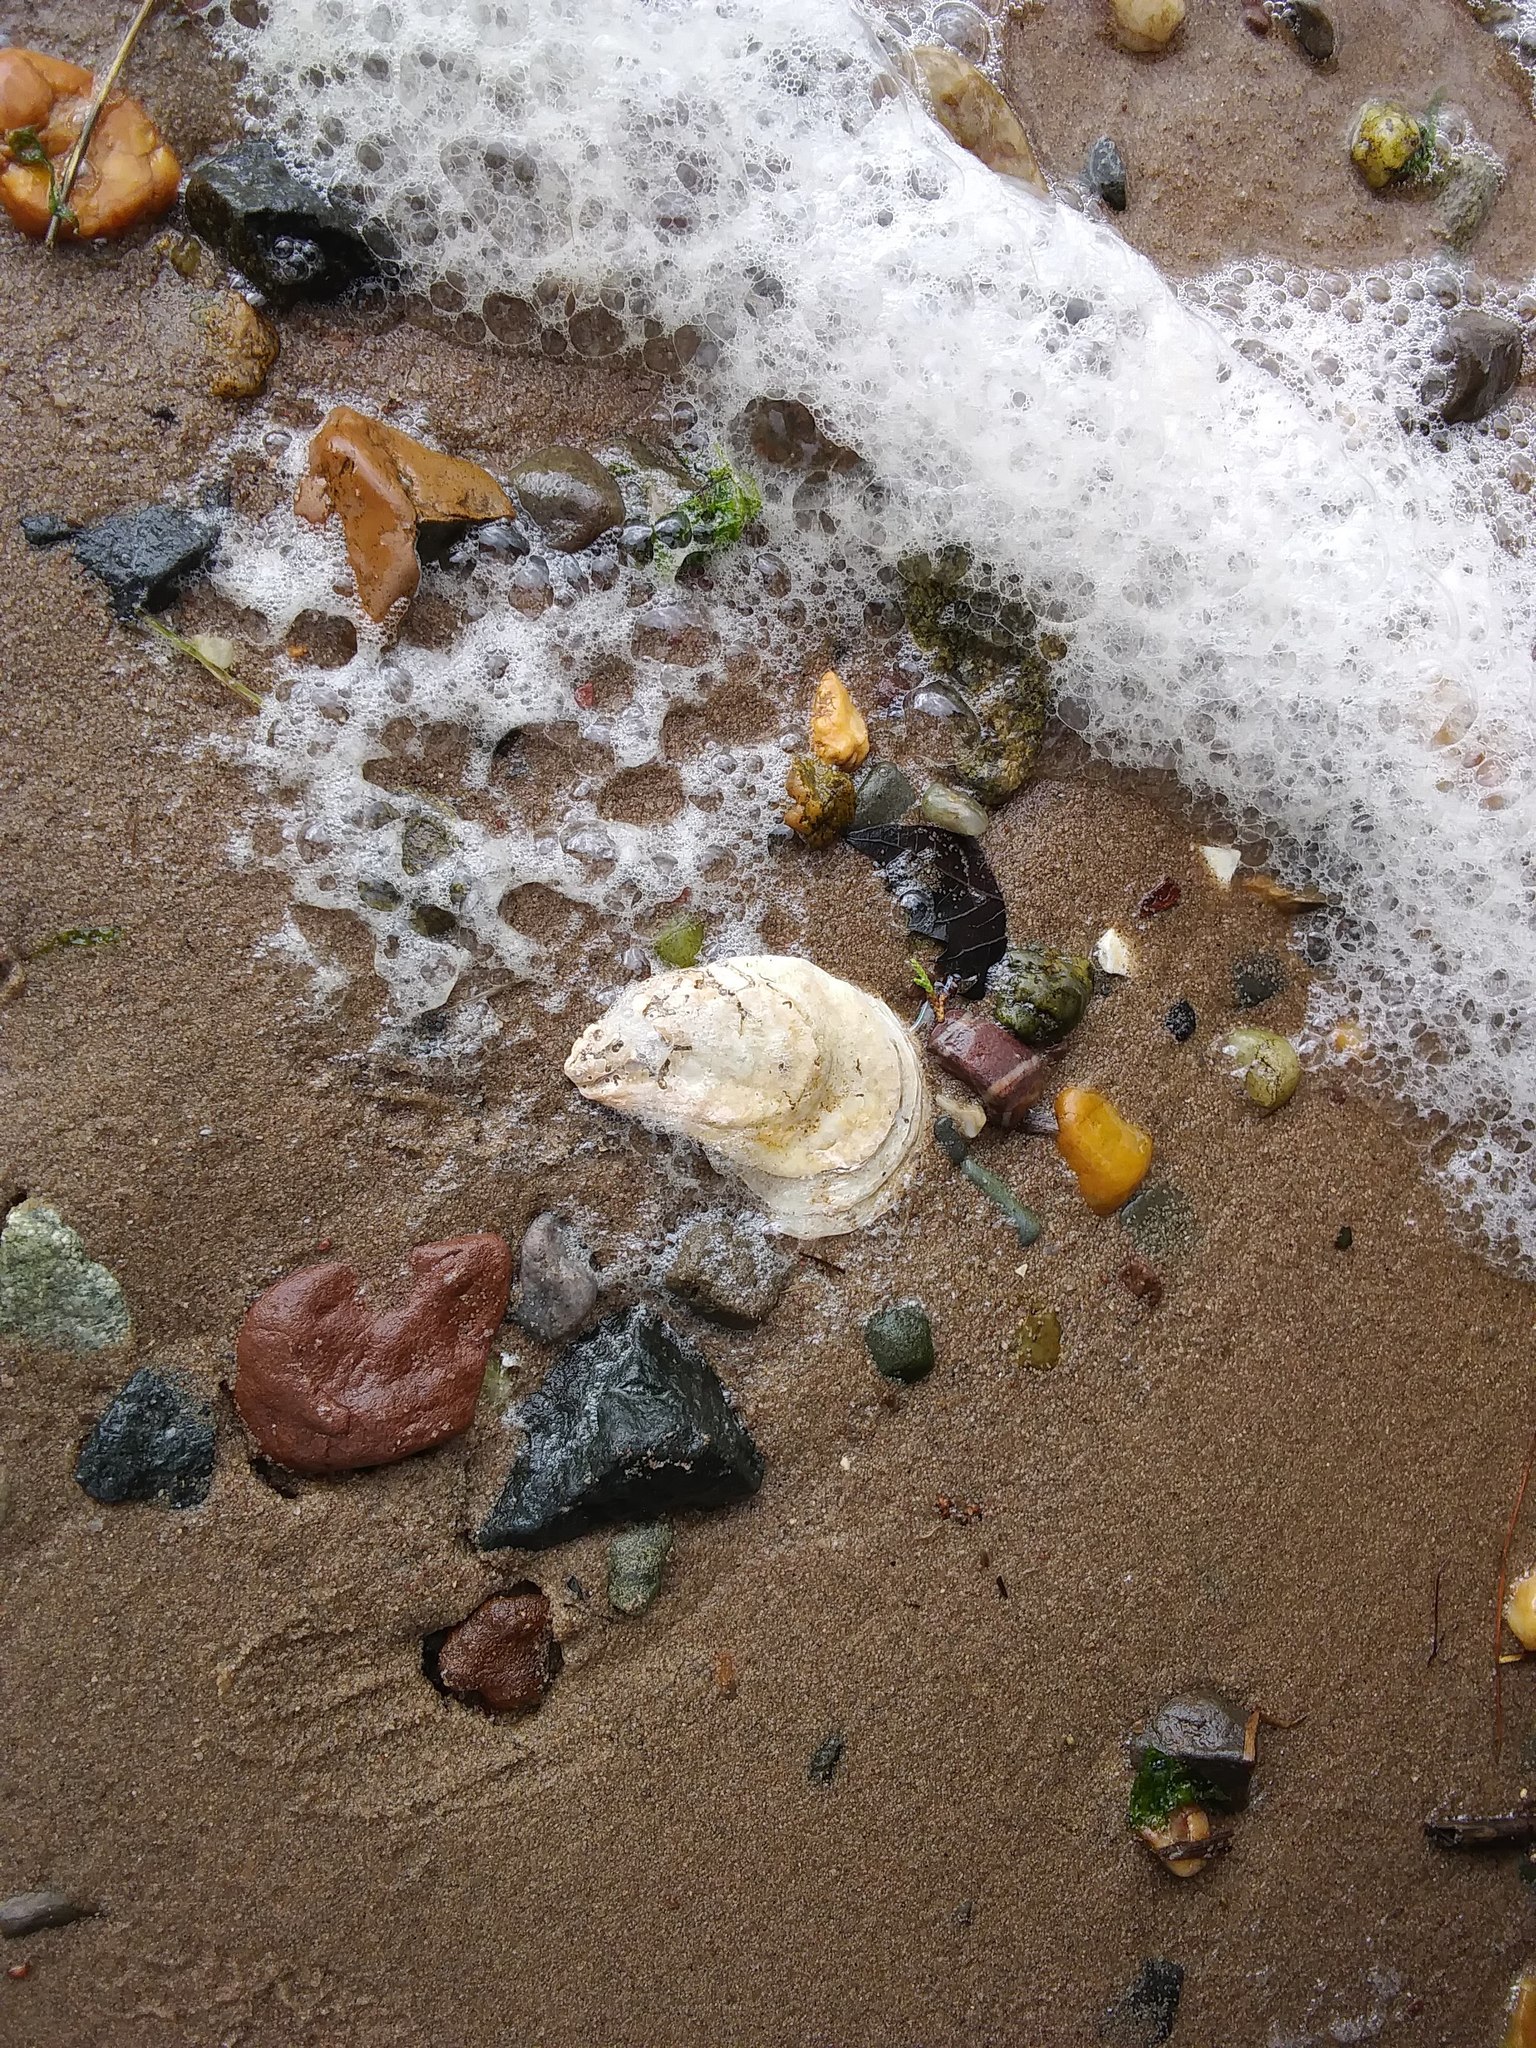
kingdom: Animalia
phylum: Mollusca
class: Bivalvia
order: Ostreida
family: Ostreidae
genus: Crassostrea
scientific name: Crassostrea virginica
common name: American oyster
